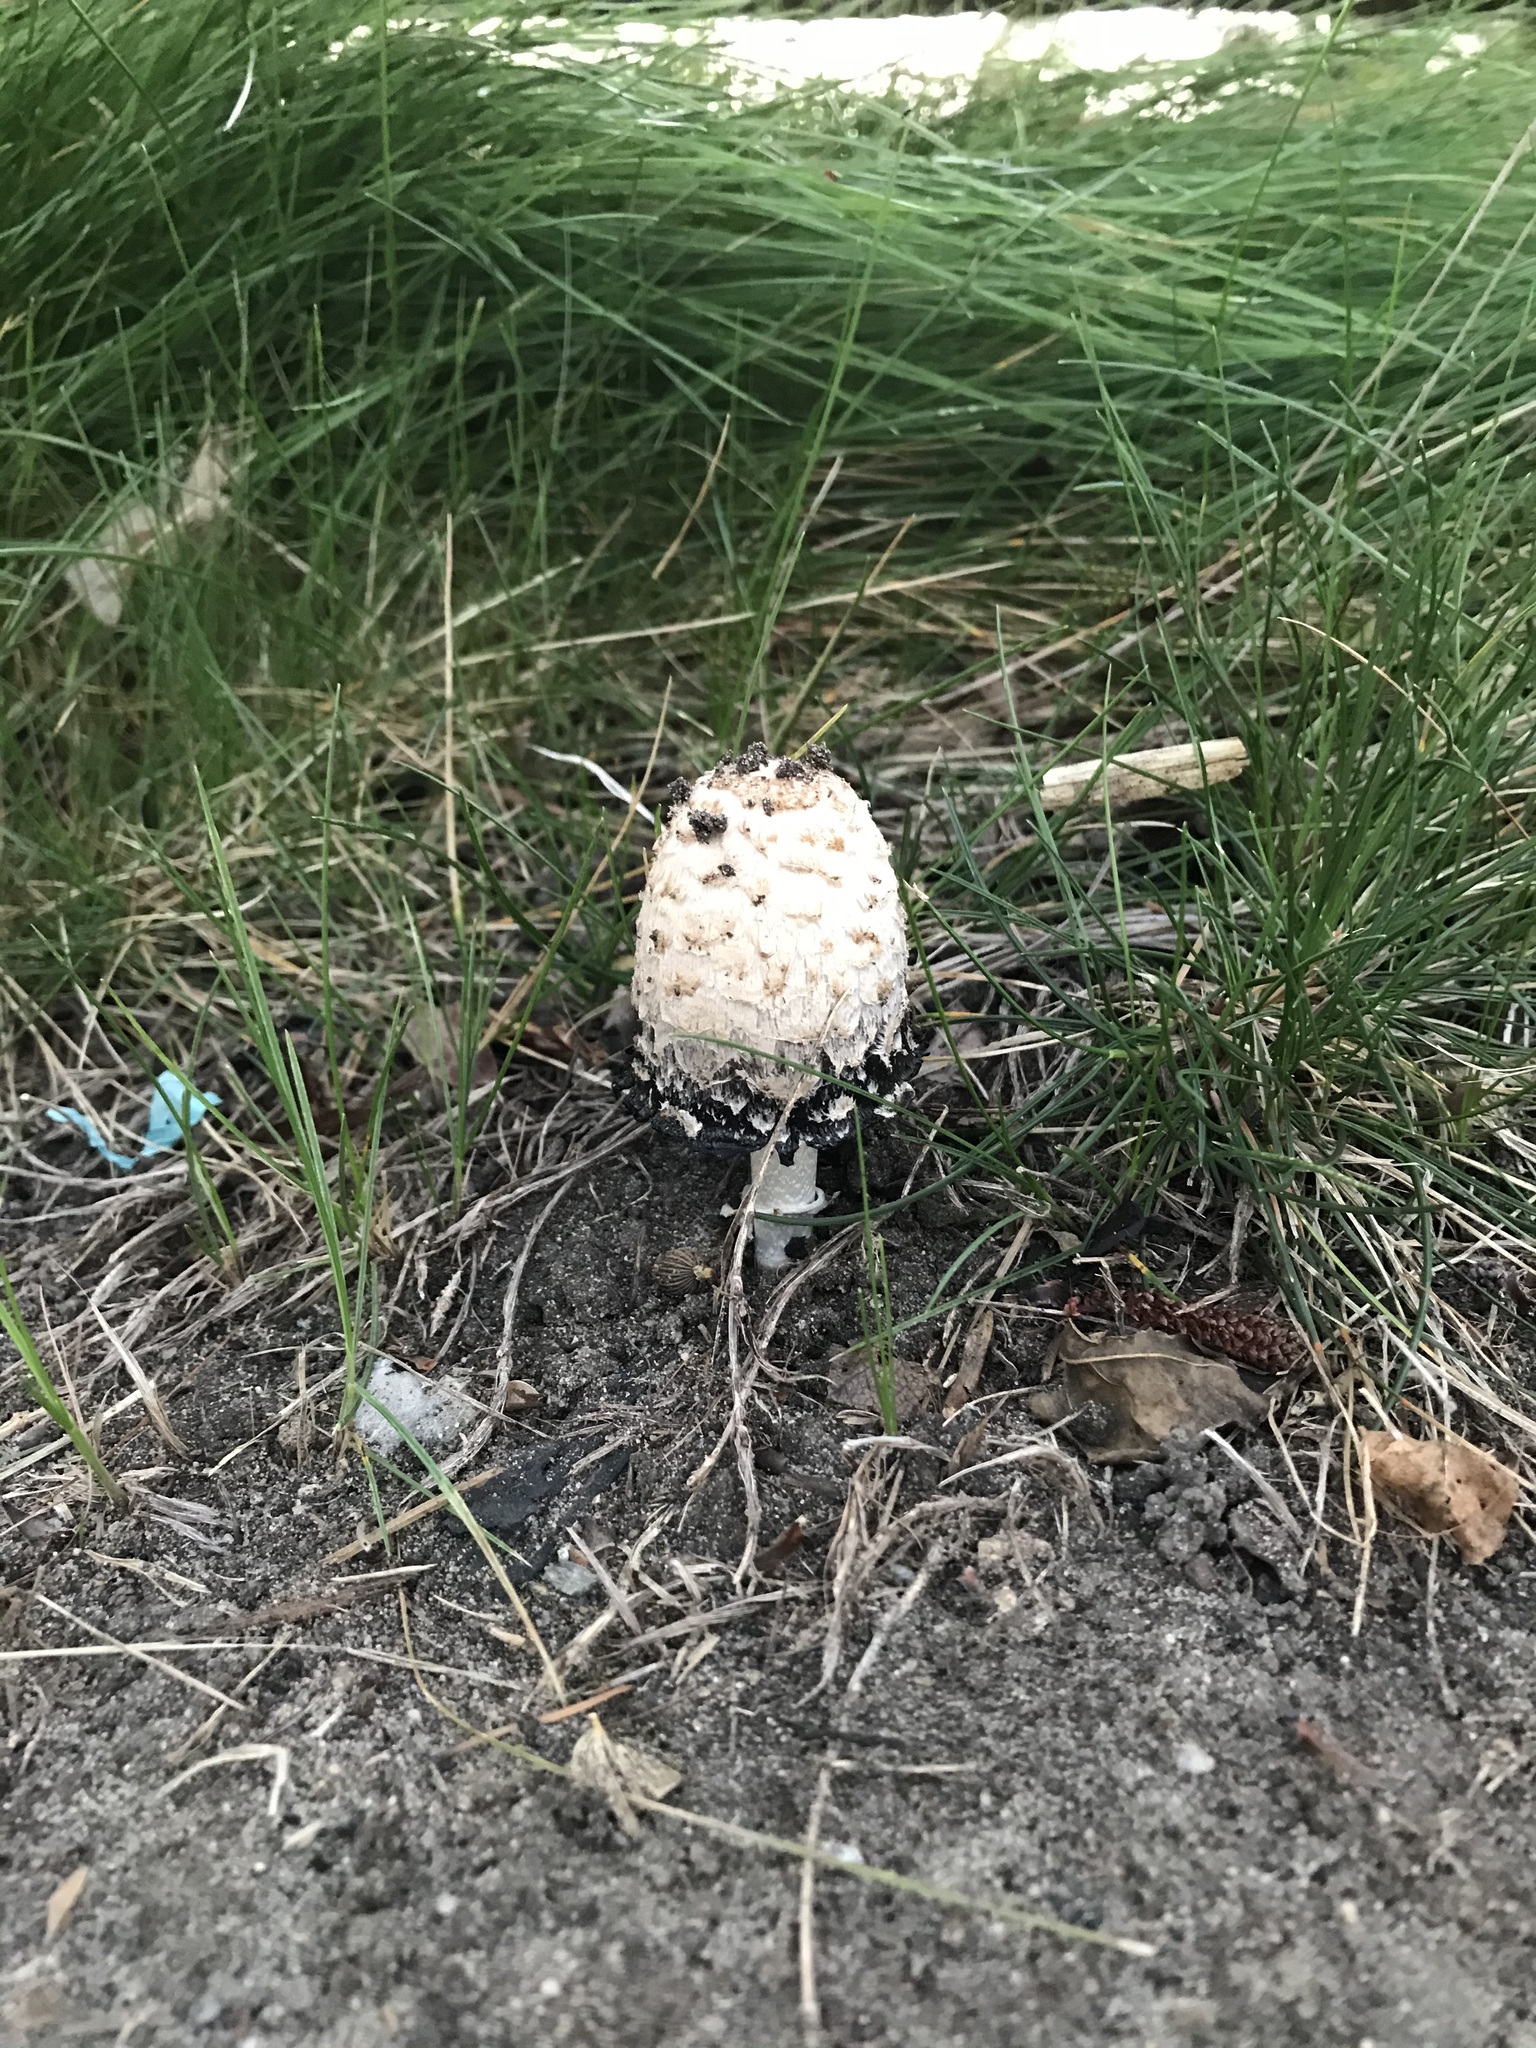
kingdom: Fungi
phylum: Basidiomycota
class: Agaricomycetes
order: Agaricales
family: Agaricaceae
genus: Coprinus
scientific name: Coprinus comatus
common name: Lawyer's wig
